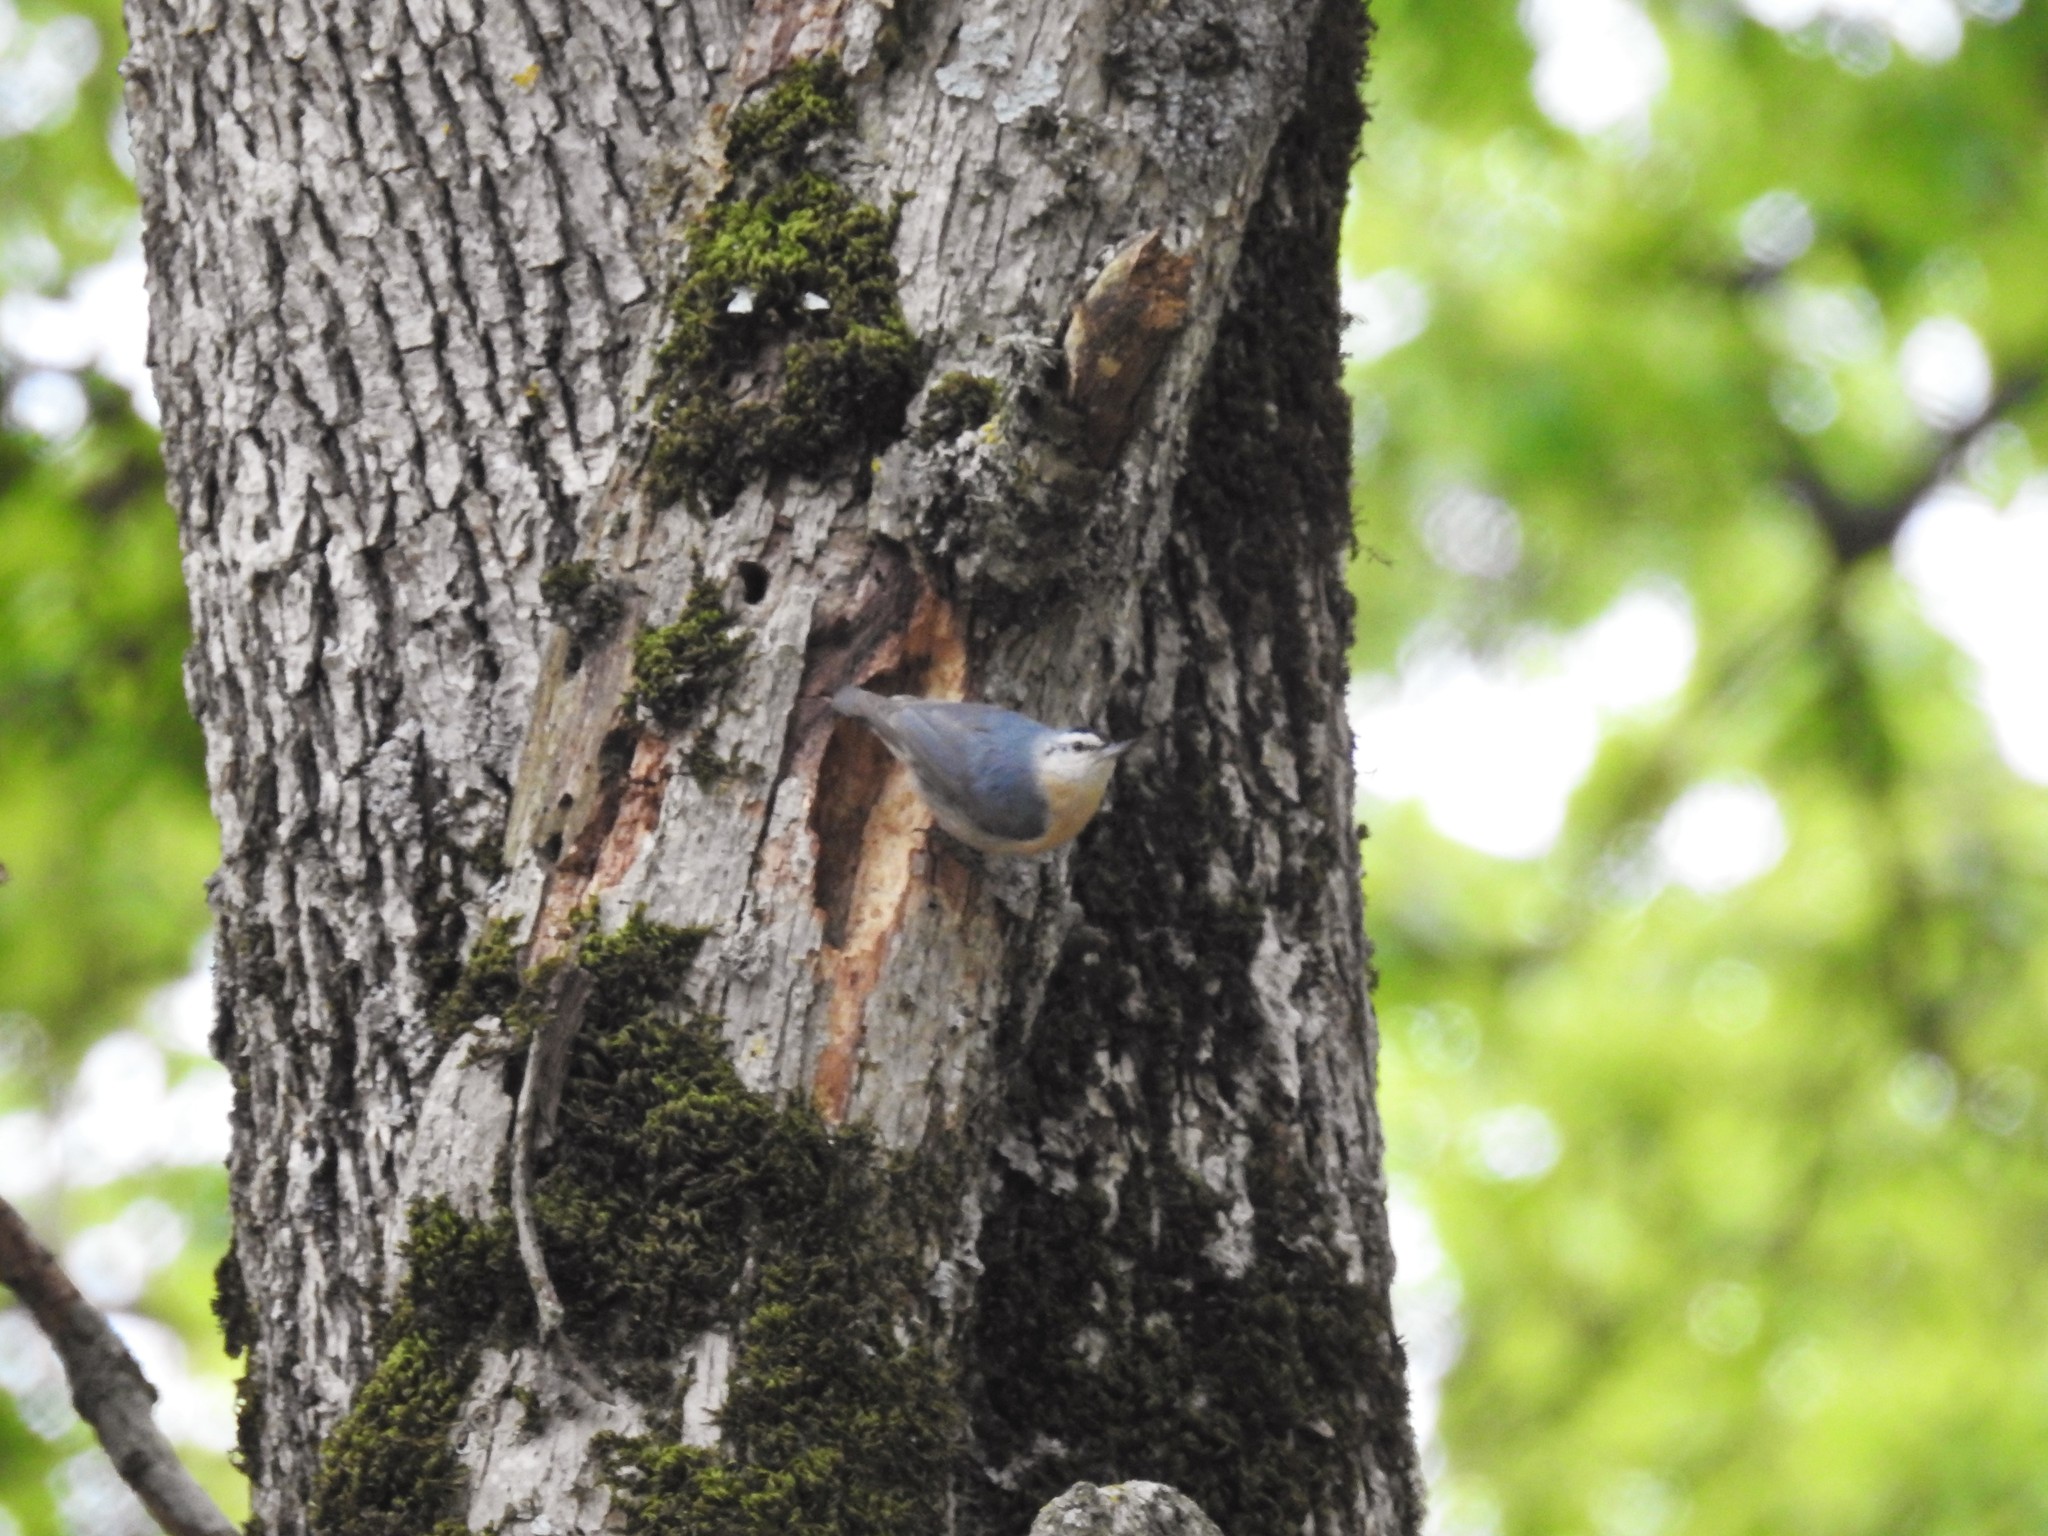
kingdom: Animalia
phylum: Chordata
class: Aves
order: Passeriformes
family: Sittidae
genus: Sitta
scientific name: Sitta ledanti
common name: Algerian nuthatch
